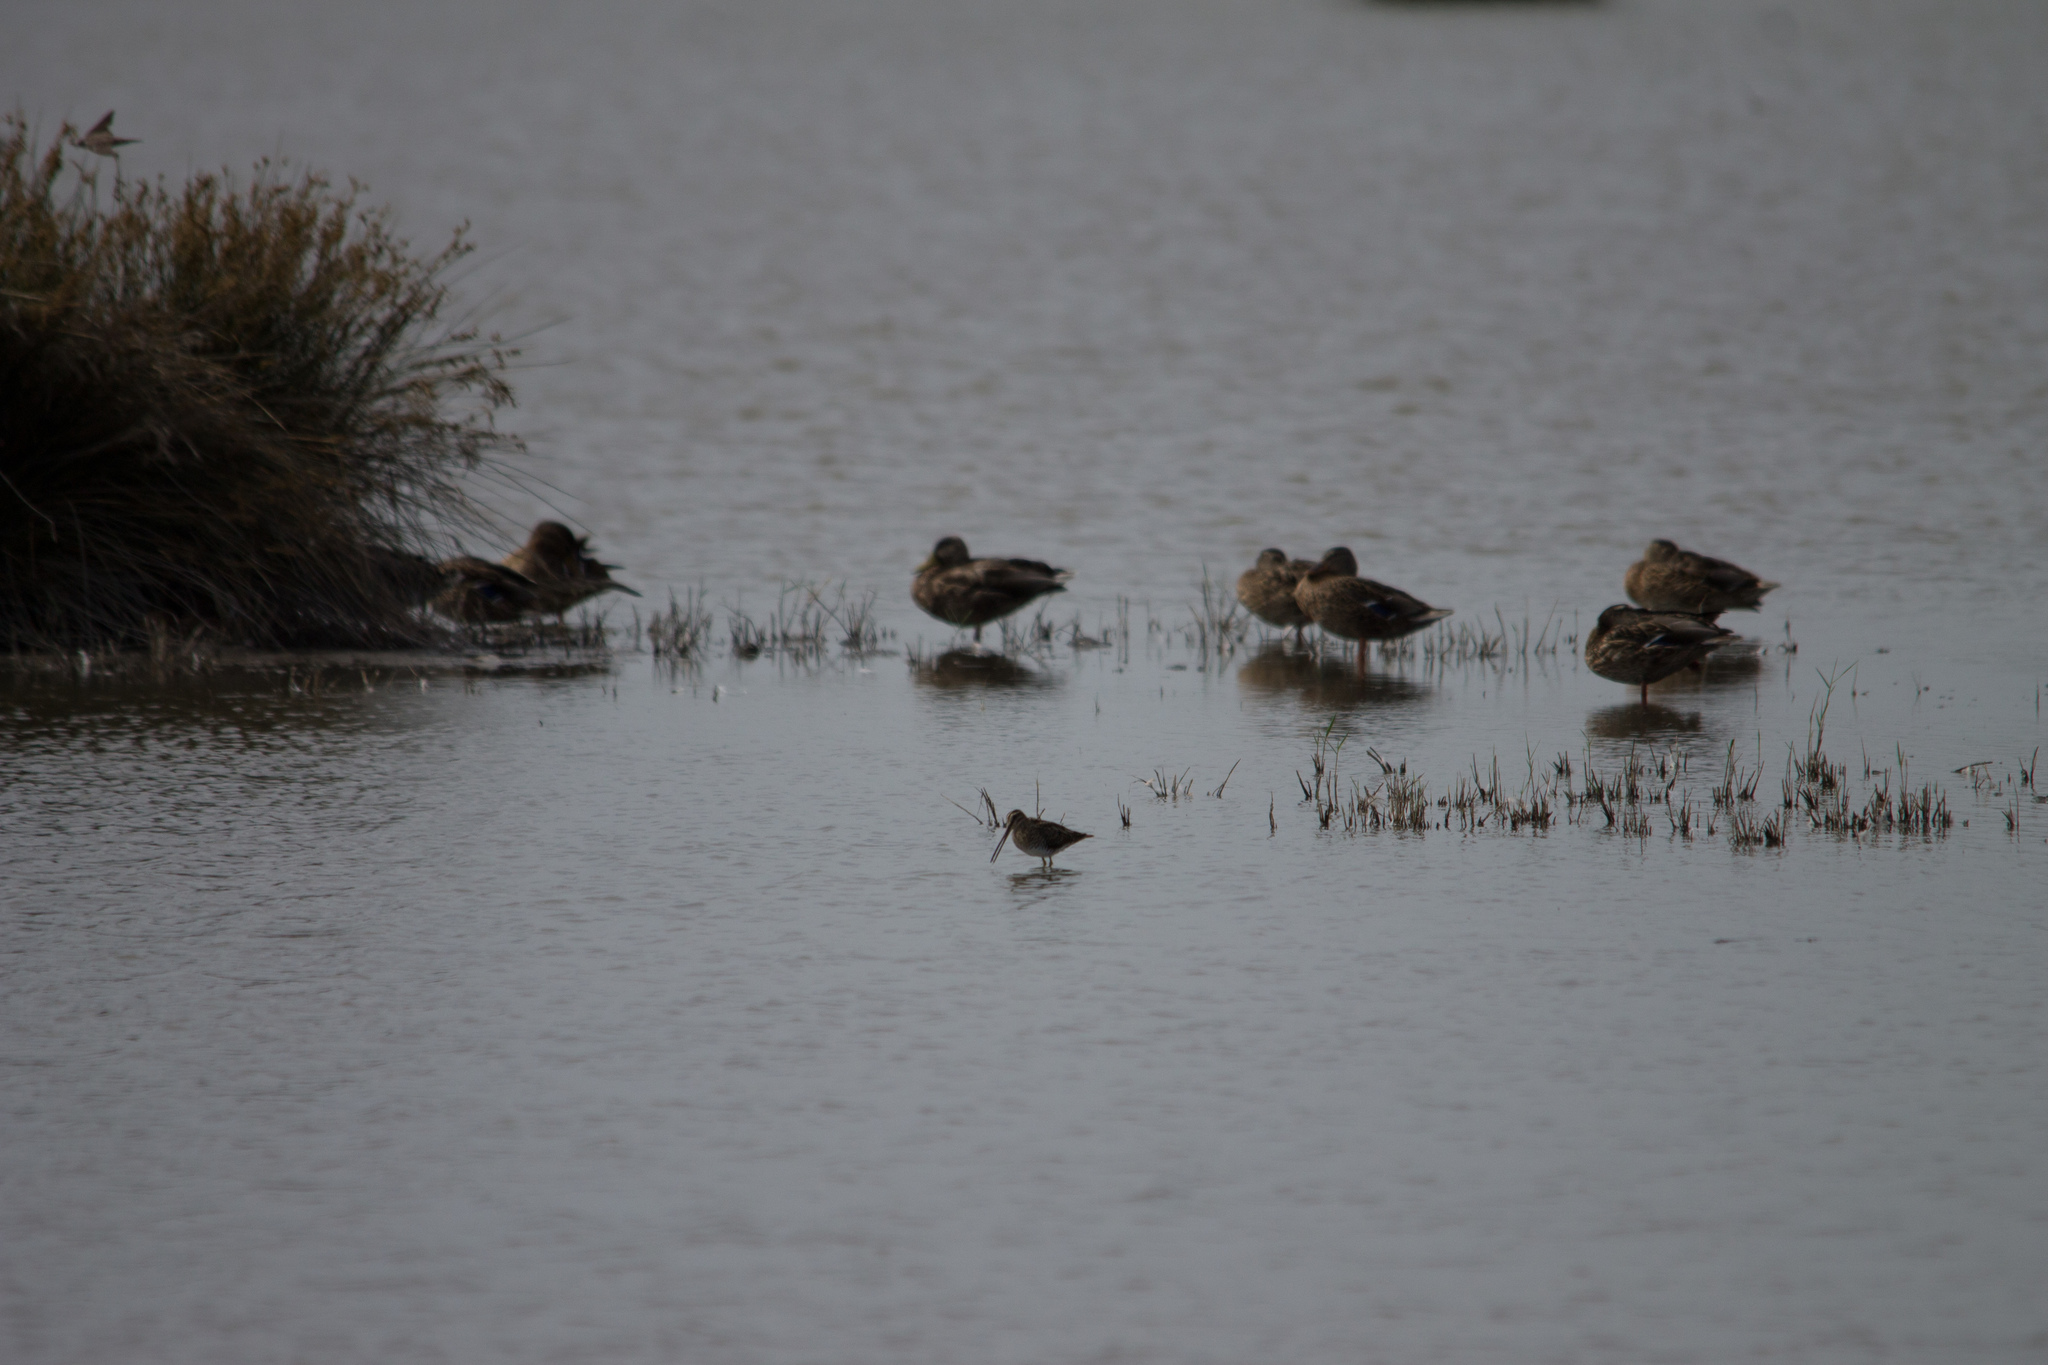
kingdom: Animalia
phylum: Chordata
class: Aves
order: Charadriiformes
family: Scolopacidae
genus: Gallinago
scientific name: Gallinago gallinago
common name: Common snipe
